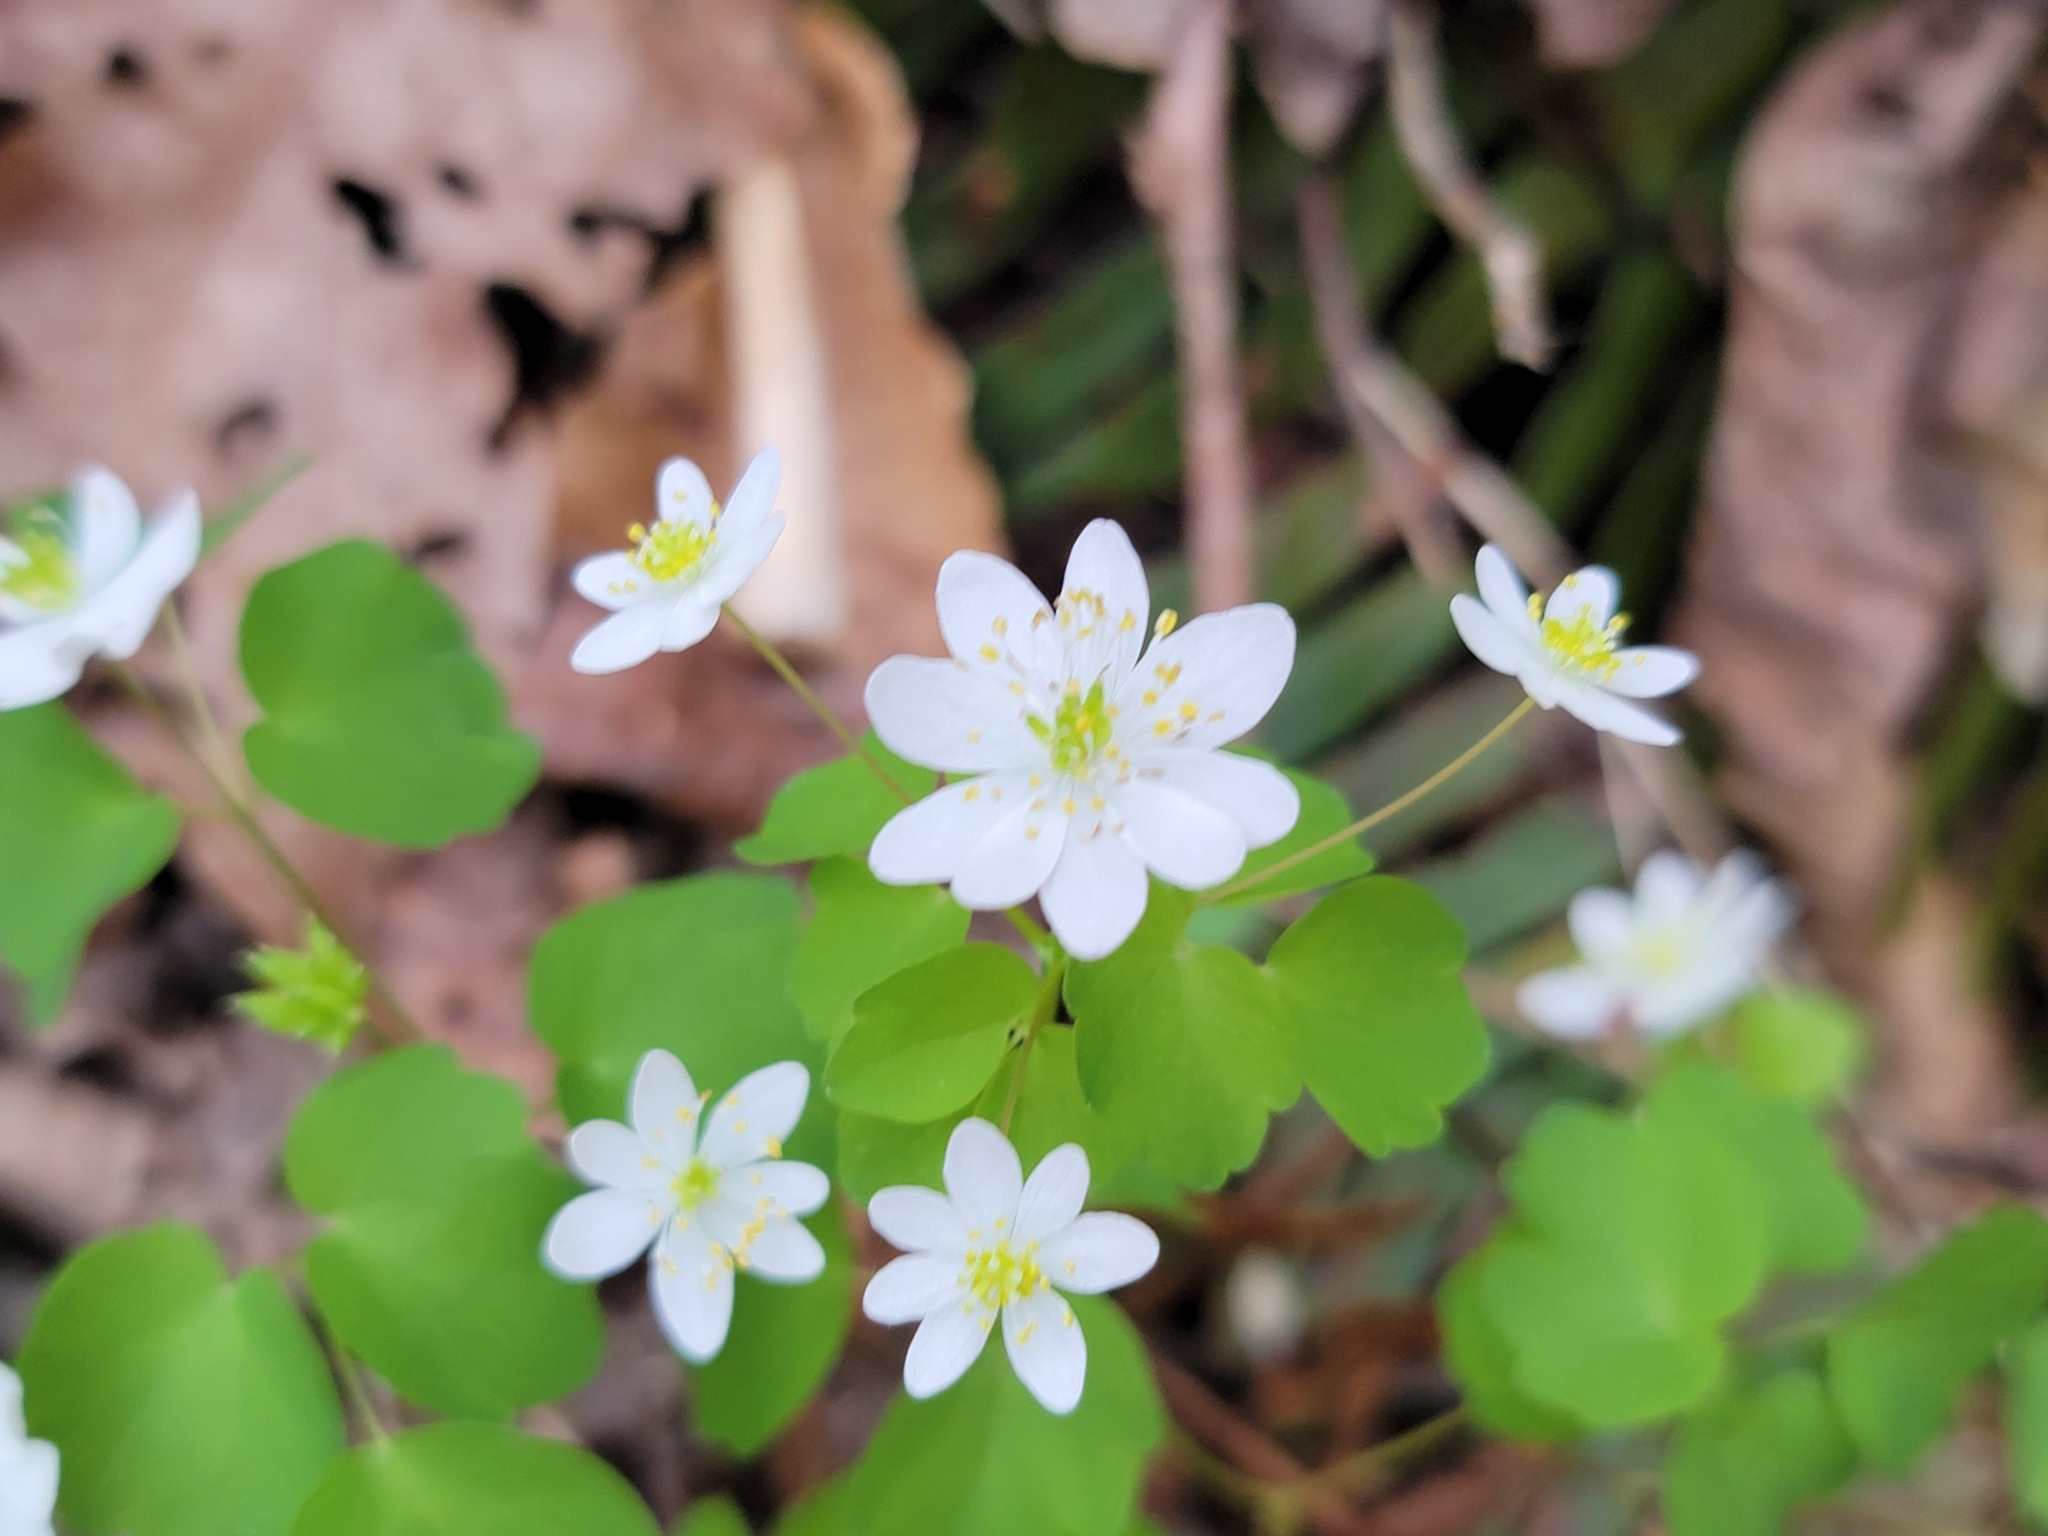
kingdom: Plantae
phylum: Tracheophyta
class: Magnoliopsida
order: Ranunculales
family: Ranunculaceae
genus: Thalictrum
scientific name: Thalictrum thalictroides
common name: Rue-anemone
